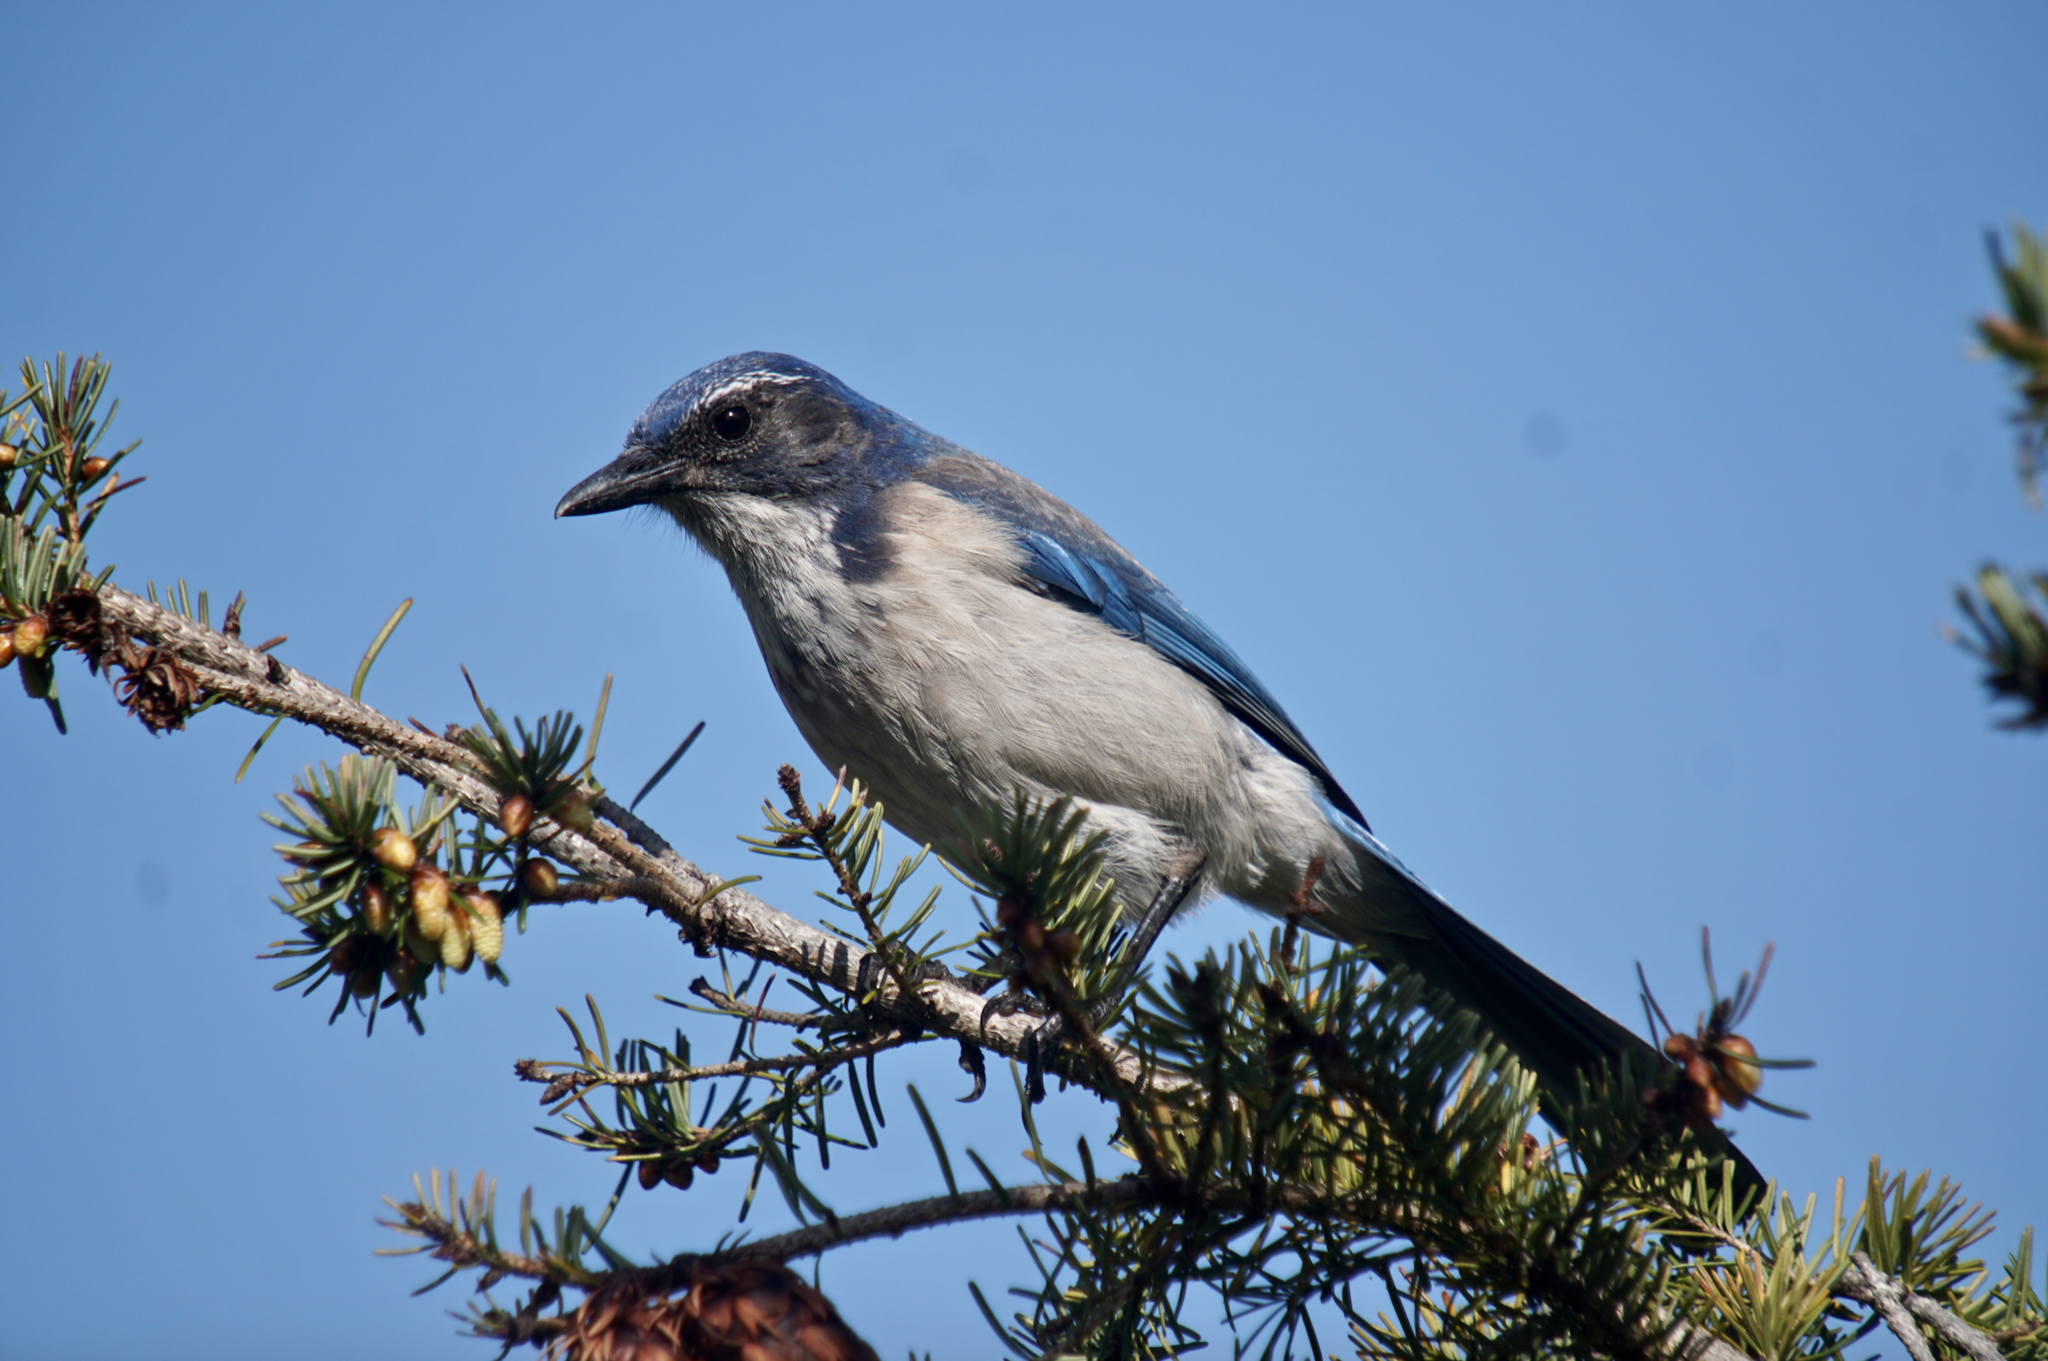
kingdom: Animalia
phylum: Chordata
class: Aves
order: Passeriformes
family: Corvidae
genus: Aphelocoma
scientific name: Aphelocoma californica
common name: California scrub-jay
